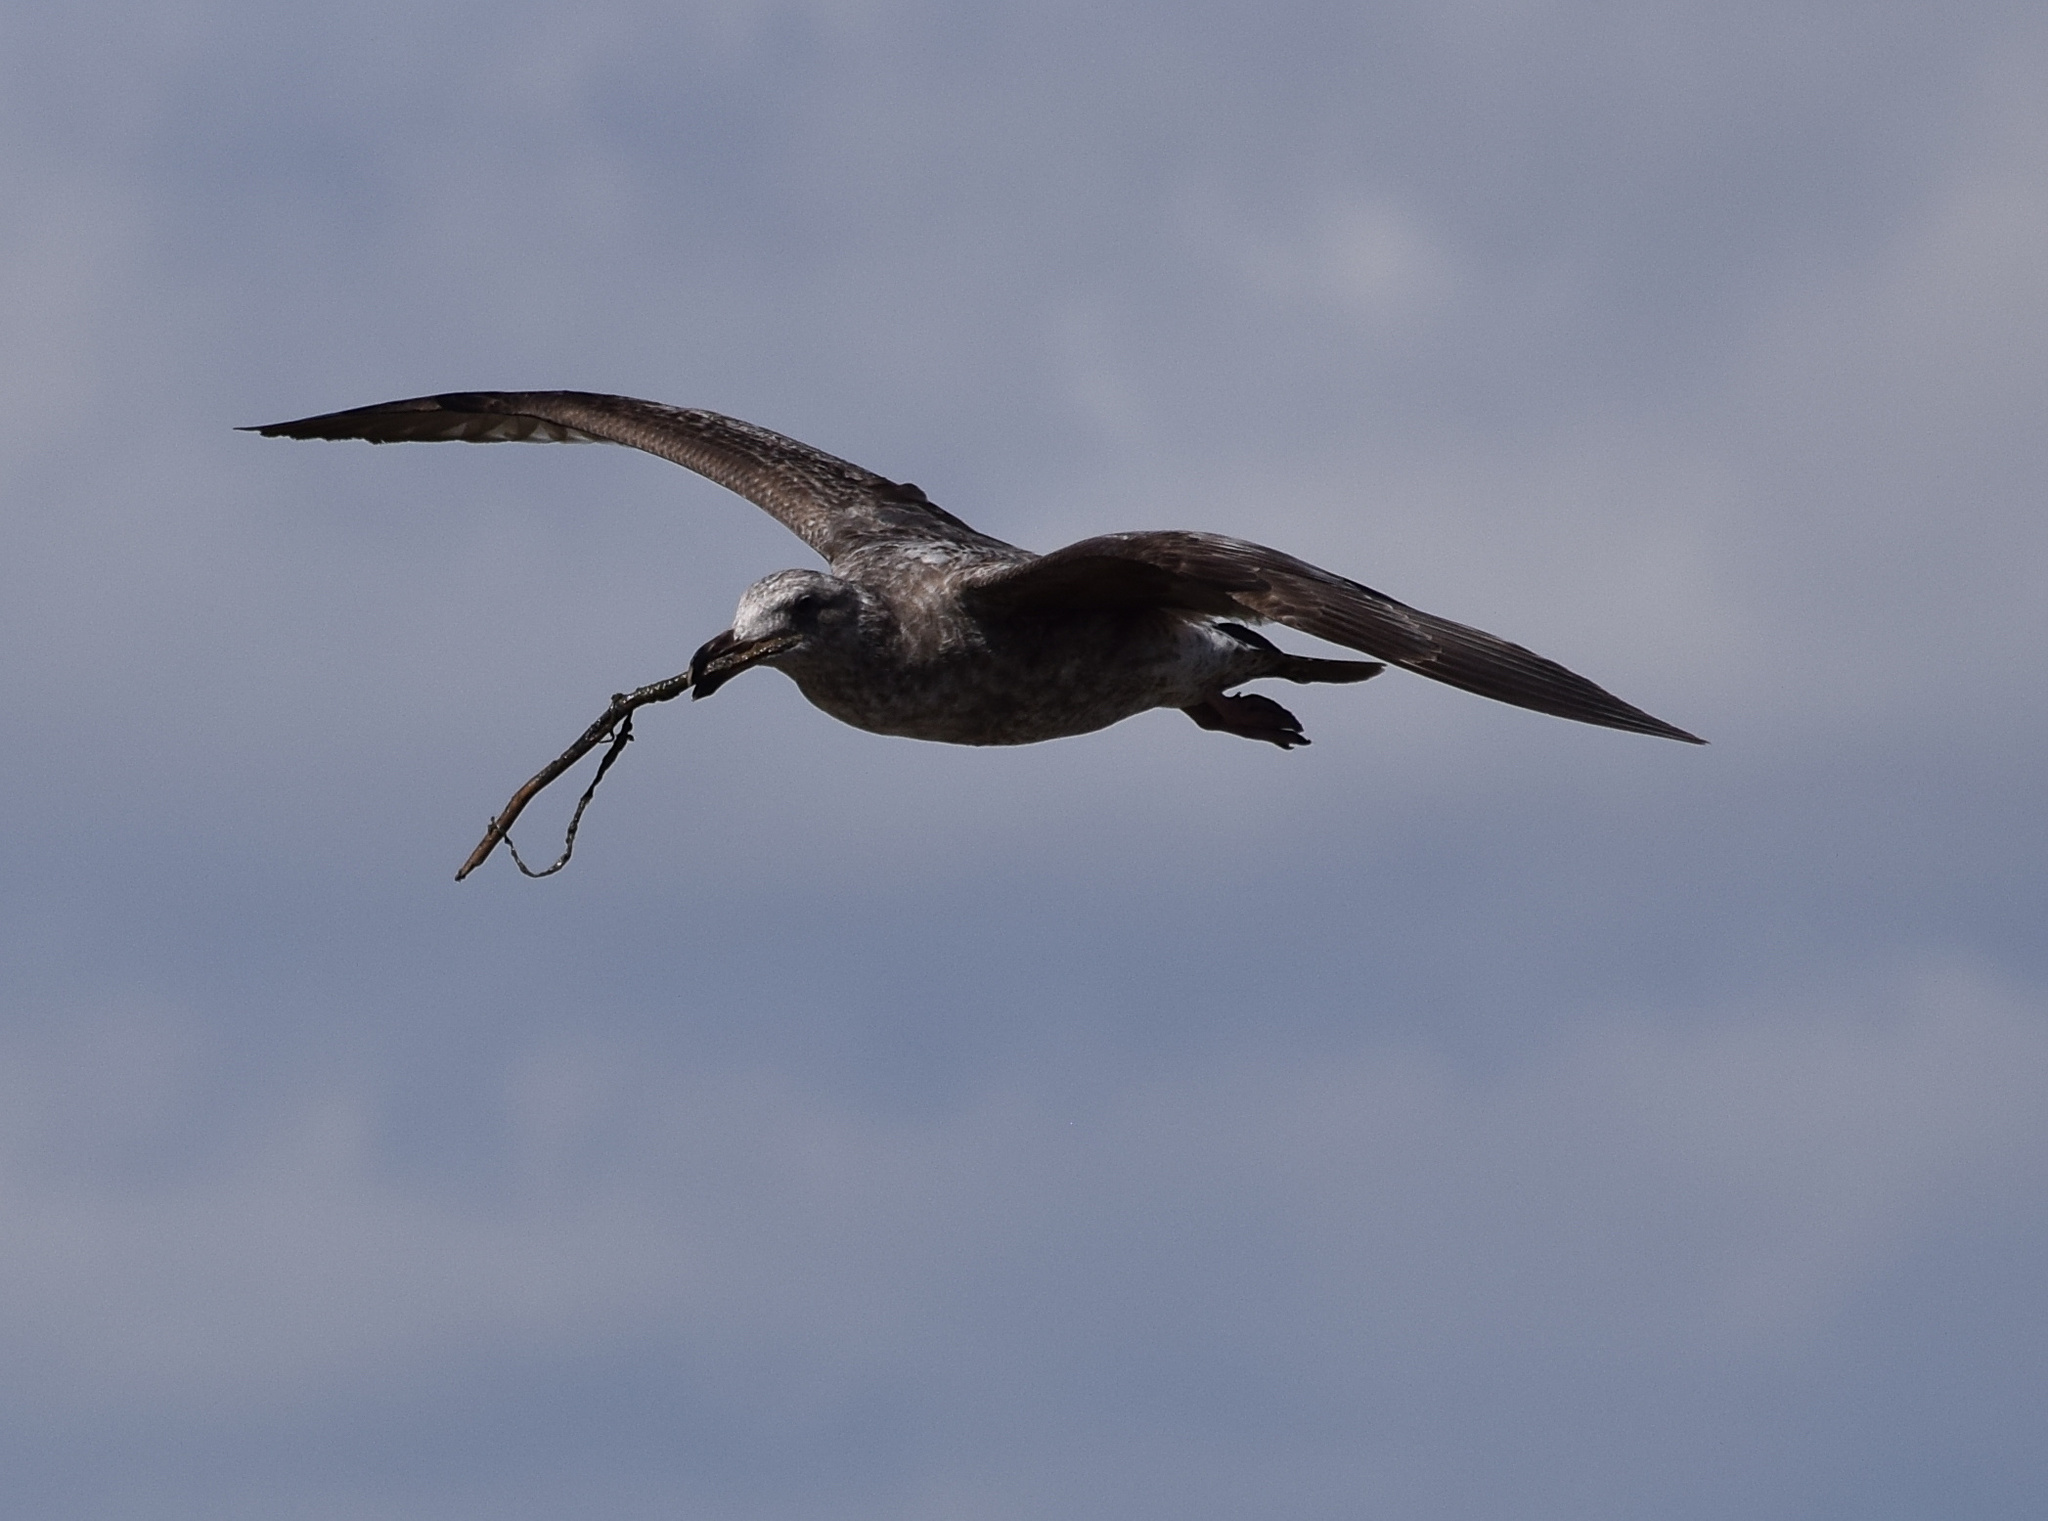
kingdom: Animalia
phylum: Chordata
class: Aves
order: Charadriiformes
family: Laridae
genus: Larus
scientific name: Larus occidentalis
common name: Western gull
